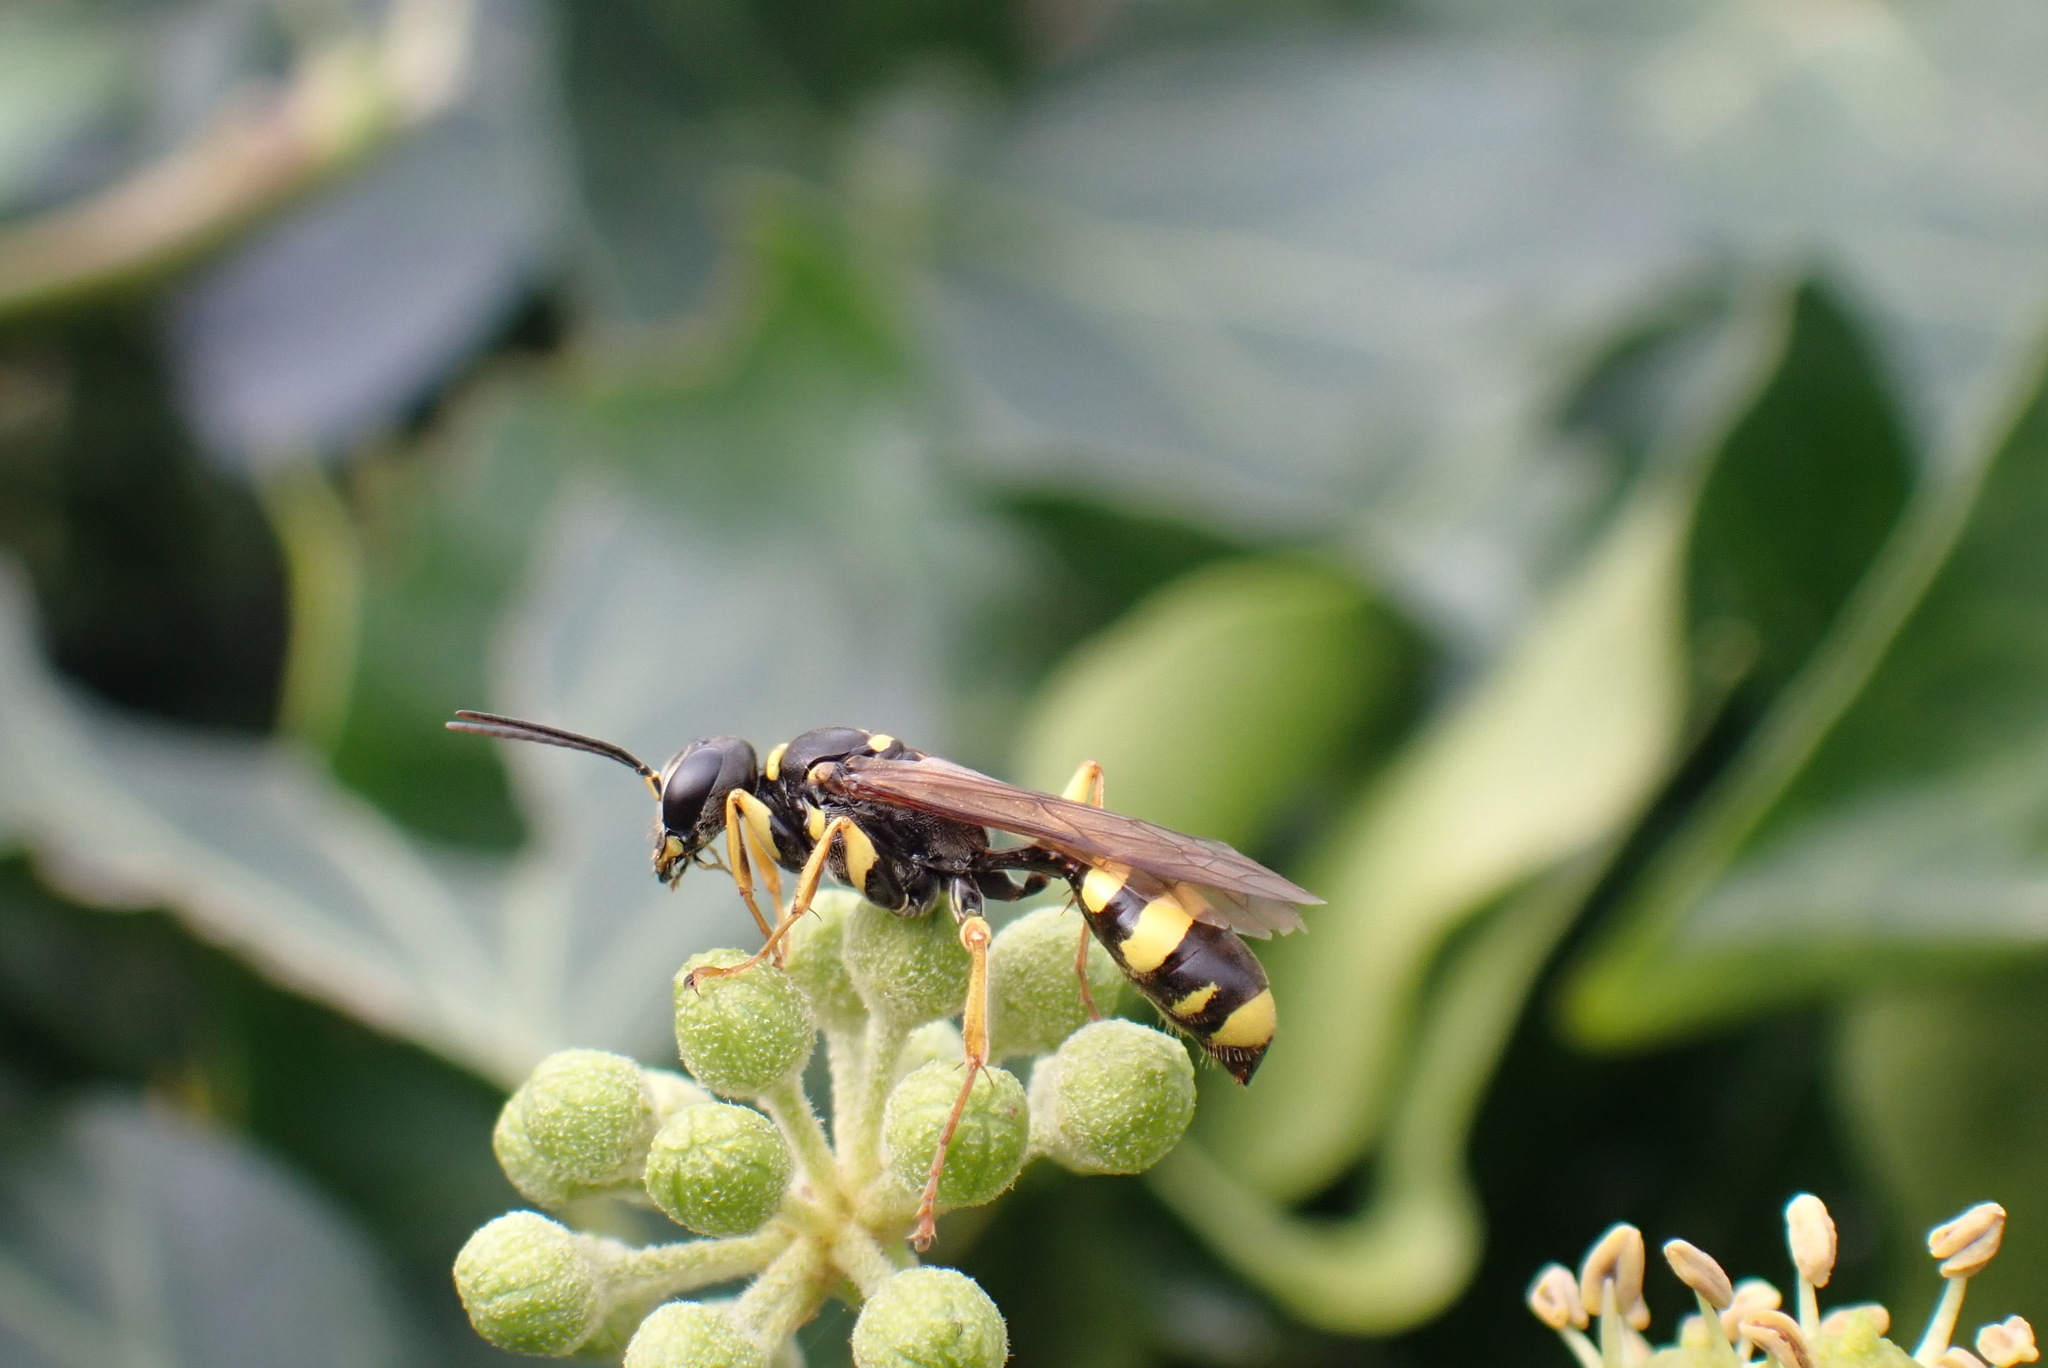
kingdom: Animalia
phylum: Arthropoda
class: Insecta
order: Hymenoptera
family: Crabronidae
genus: Mellinus
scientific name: Mellinus arvensis
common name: Field digger wasp
